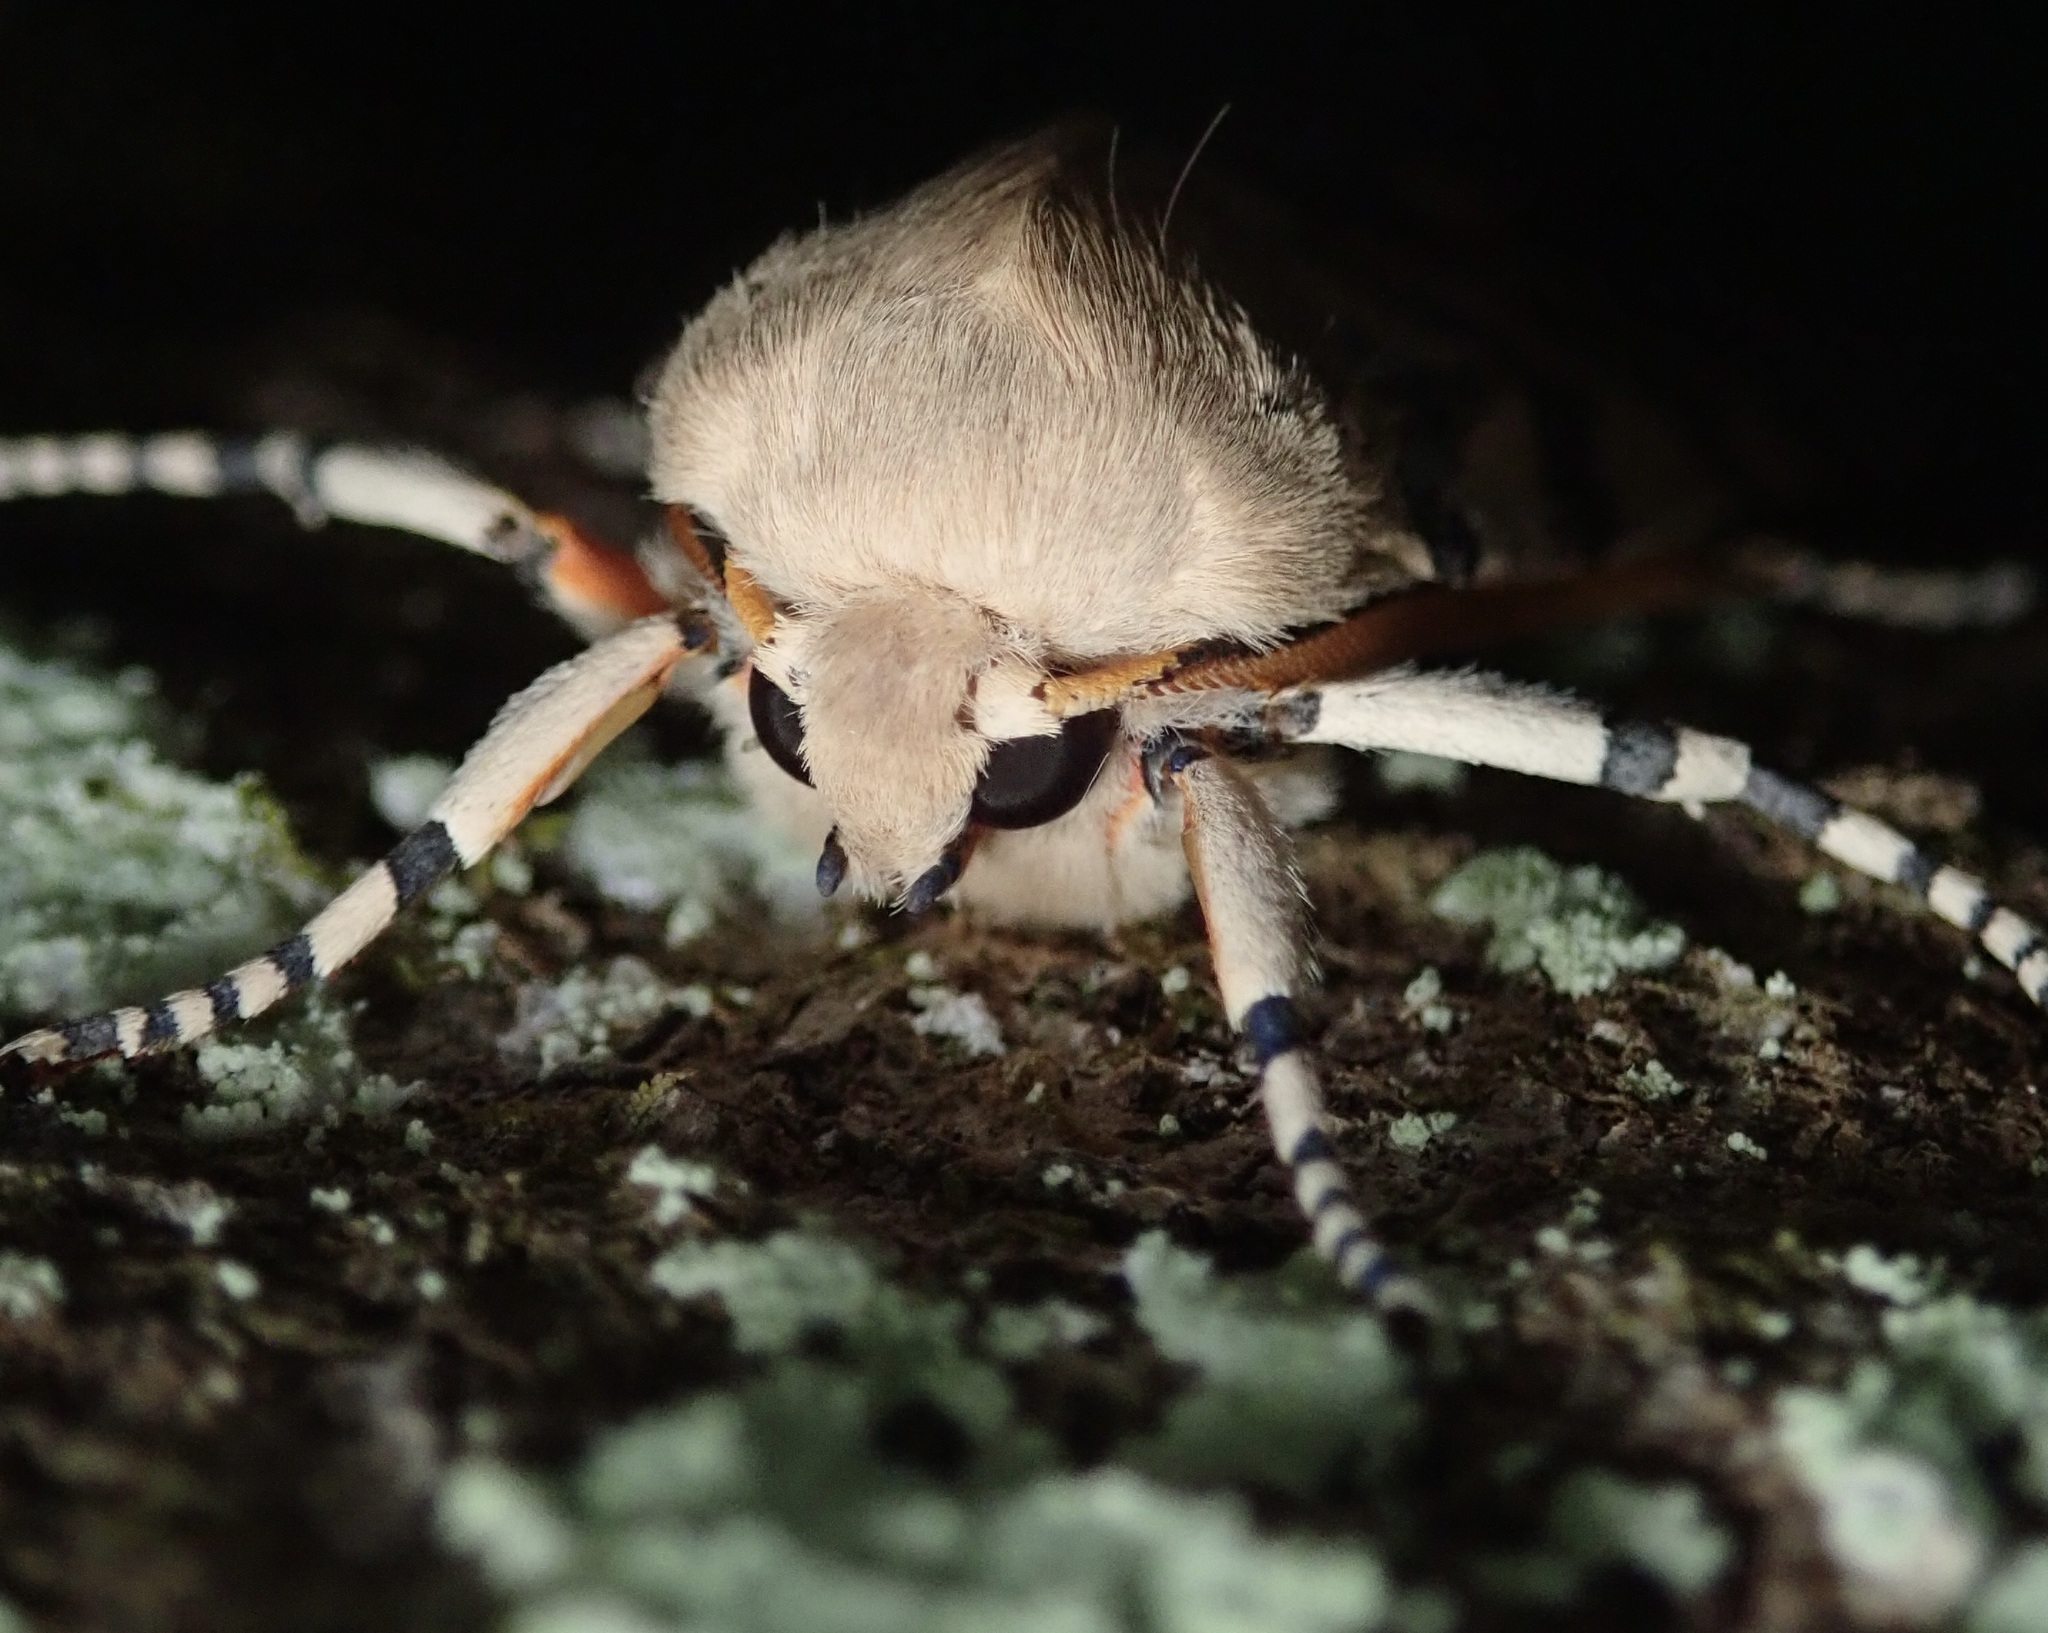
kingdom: Animalia
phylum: Arthropoda
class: Insecta
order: Lepidoptera
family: Erebidae
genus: Hemihyalea
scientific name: Hemihyalea edwardsii
